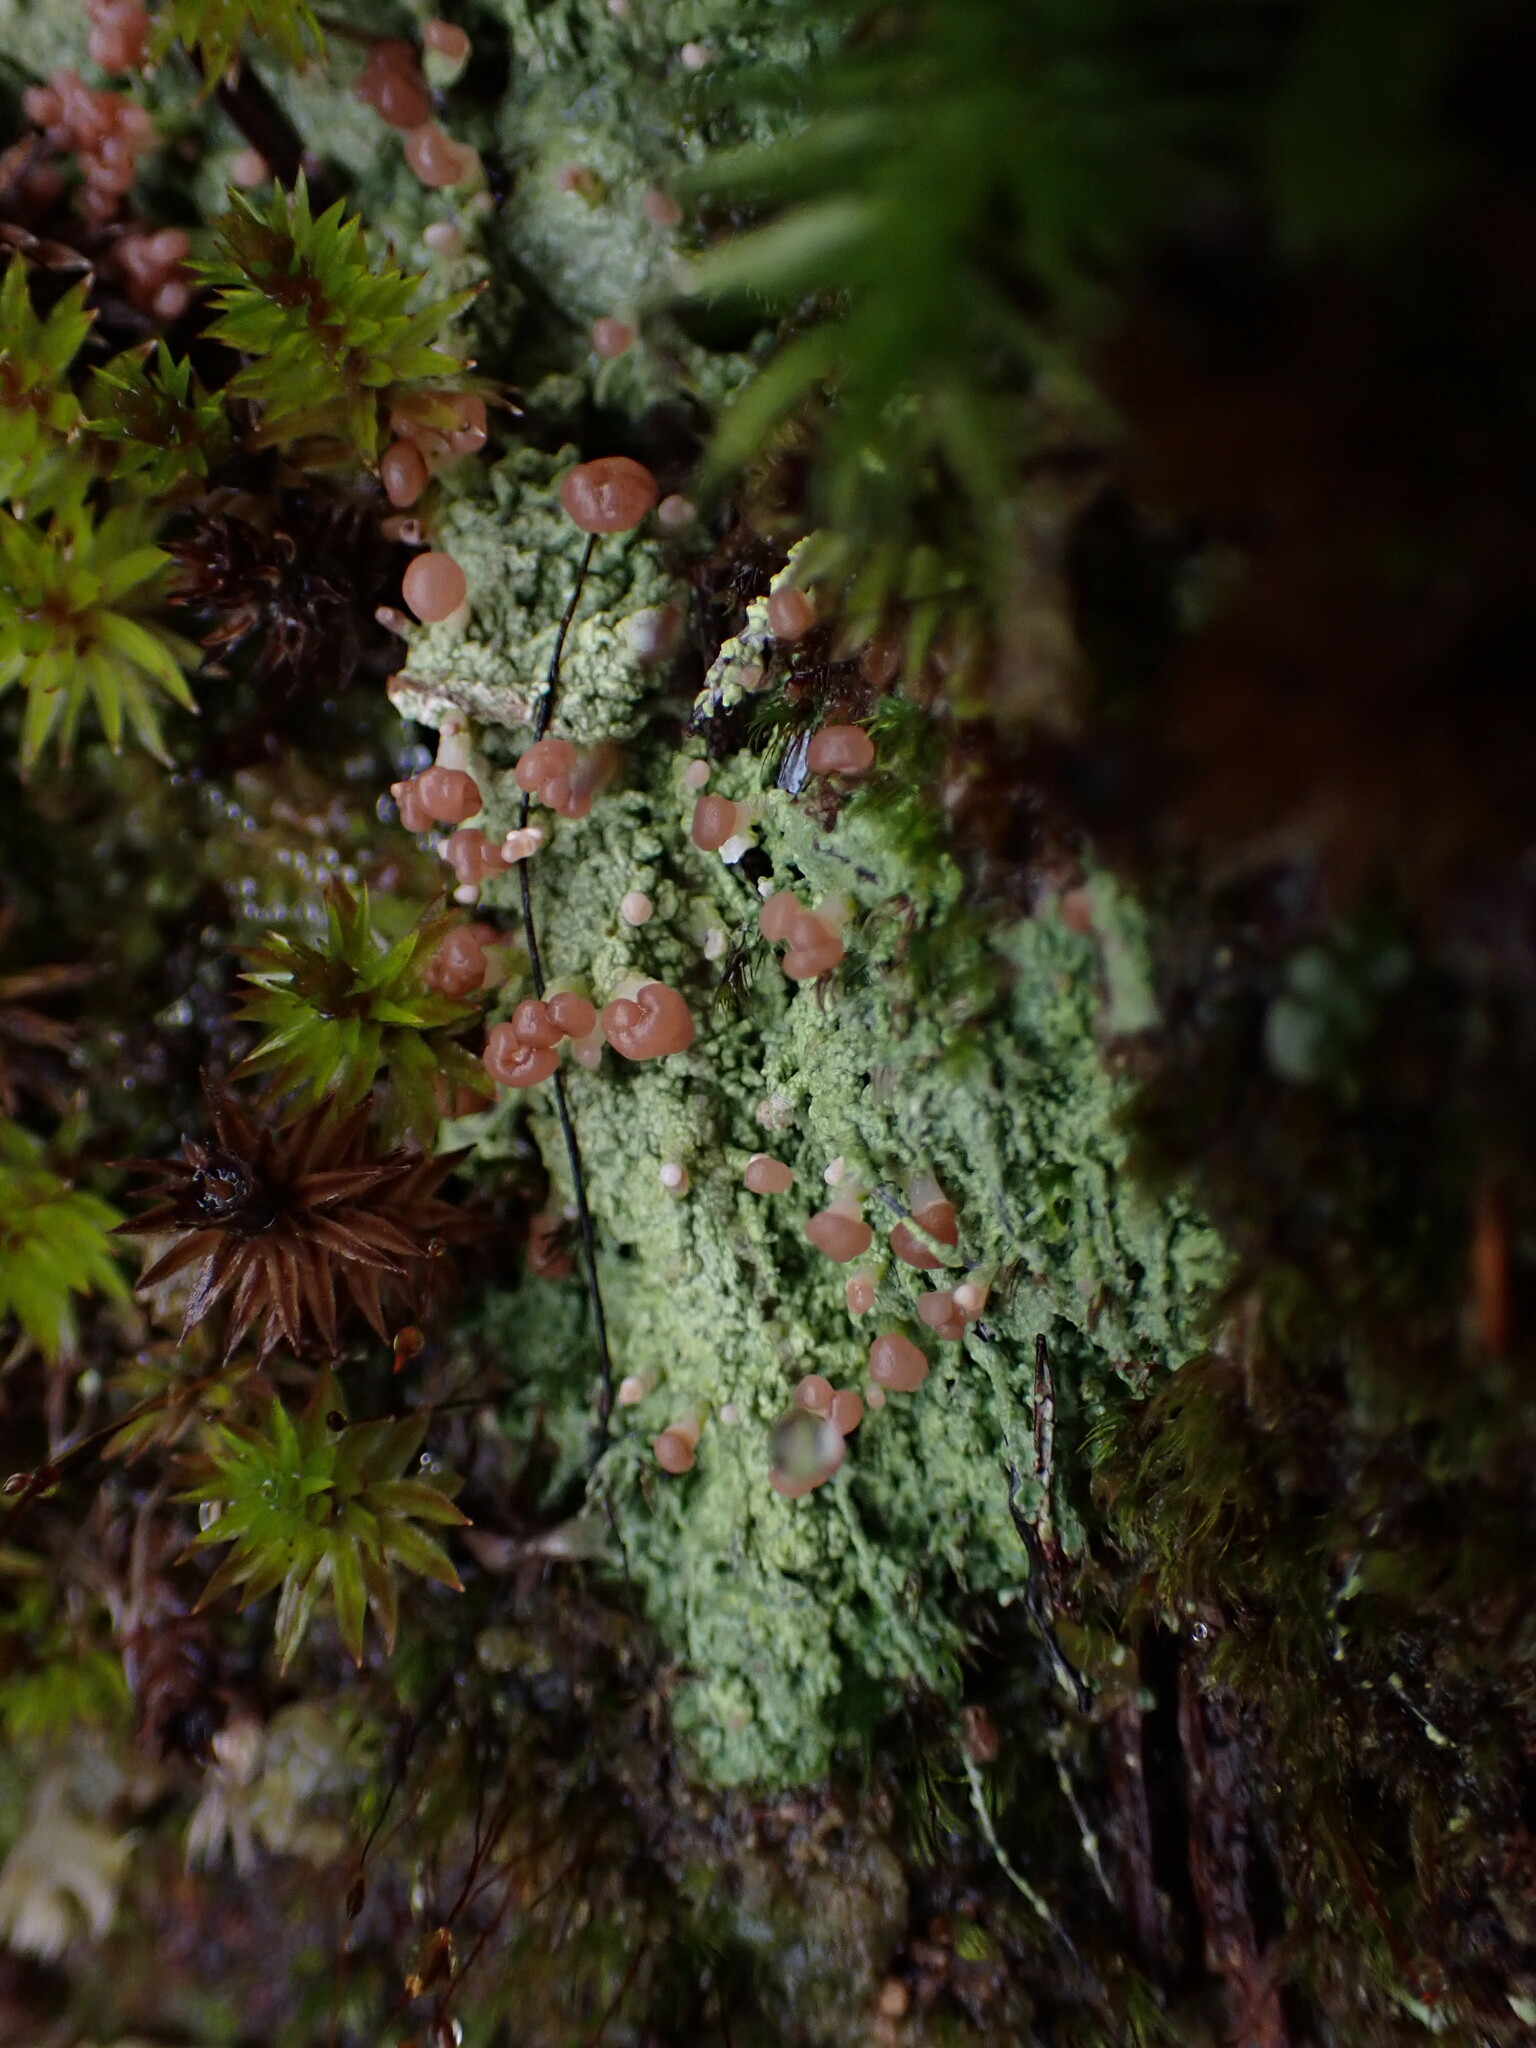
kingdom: Fungi
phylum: Ascomycota
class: Lecanoromycetes
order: Baeomycetales
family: Baeomycetaceae
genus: Baeomyces
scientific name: Baeomyces rufus
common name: Brown beret lichen
